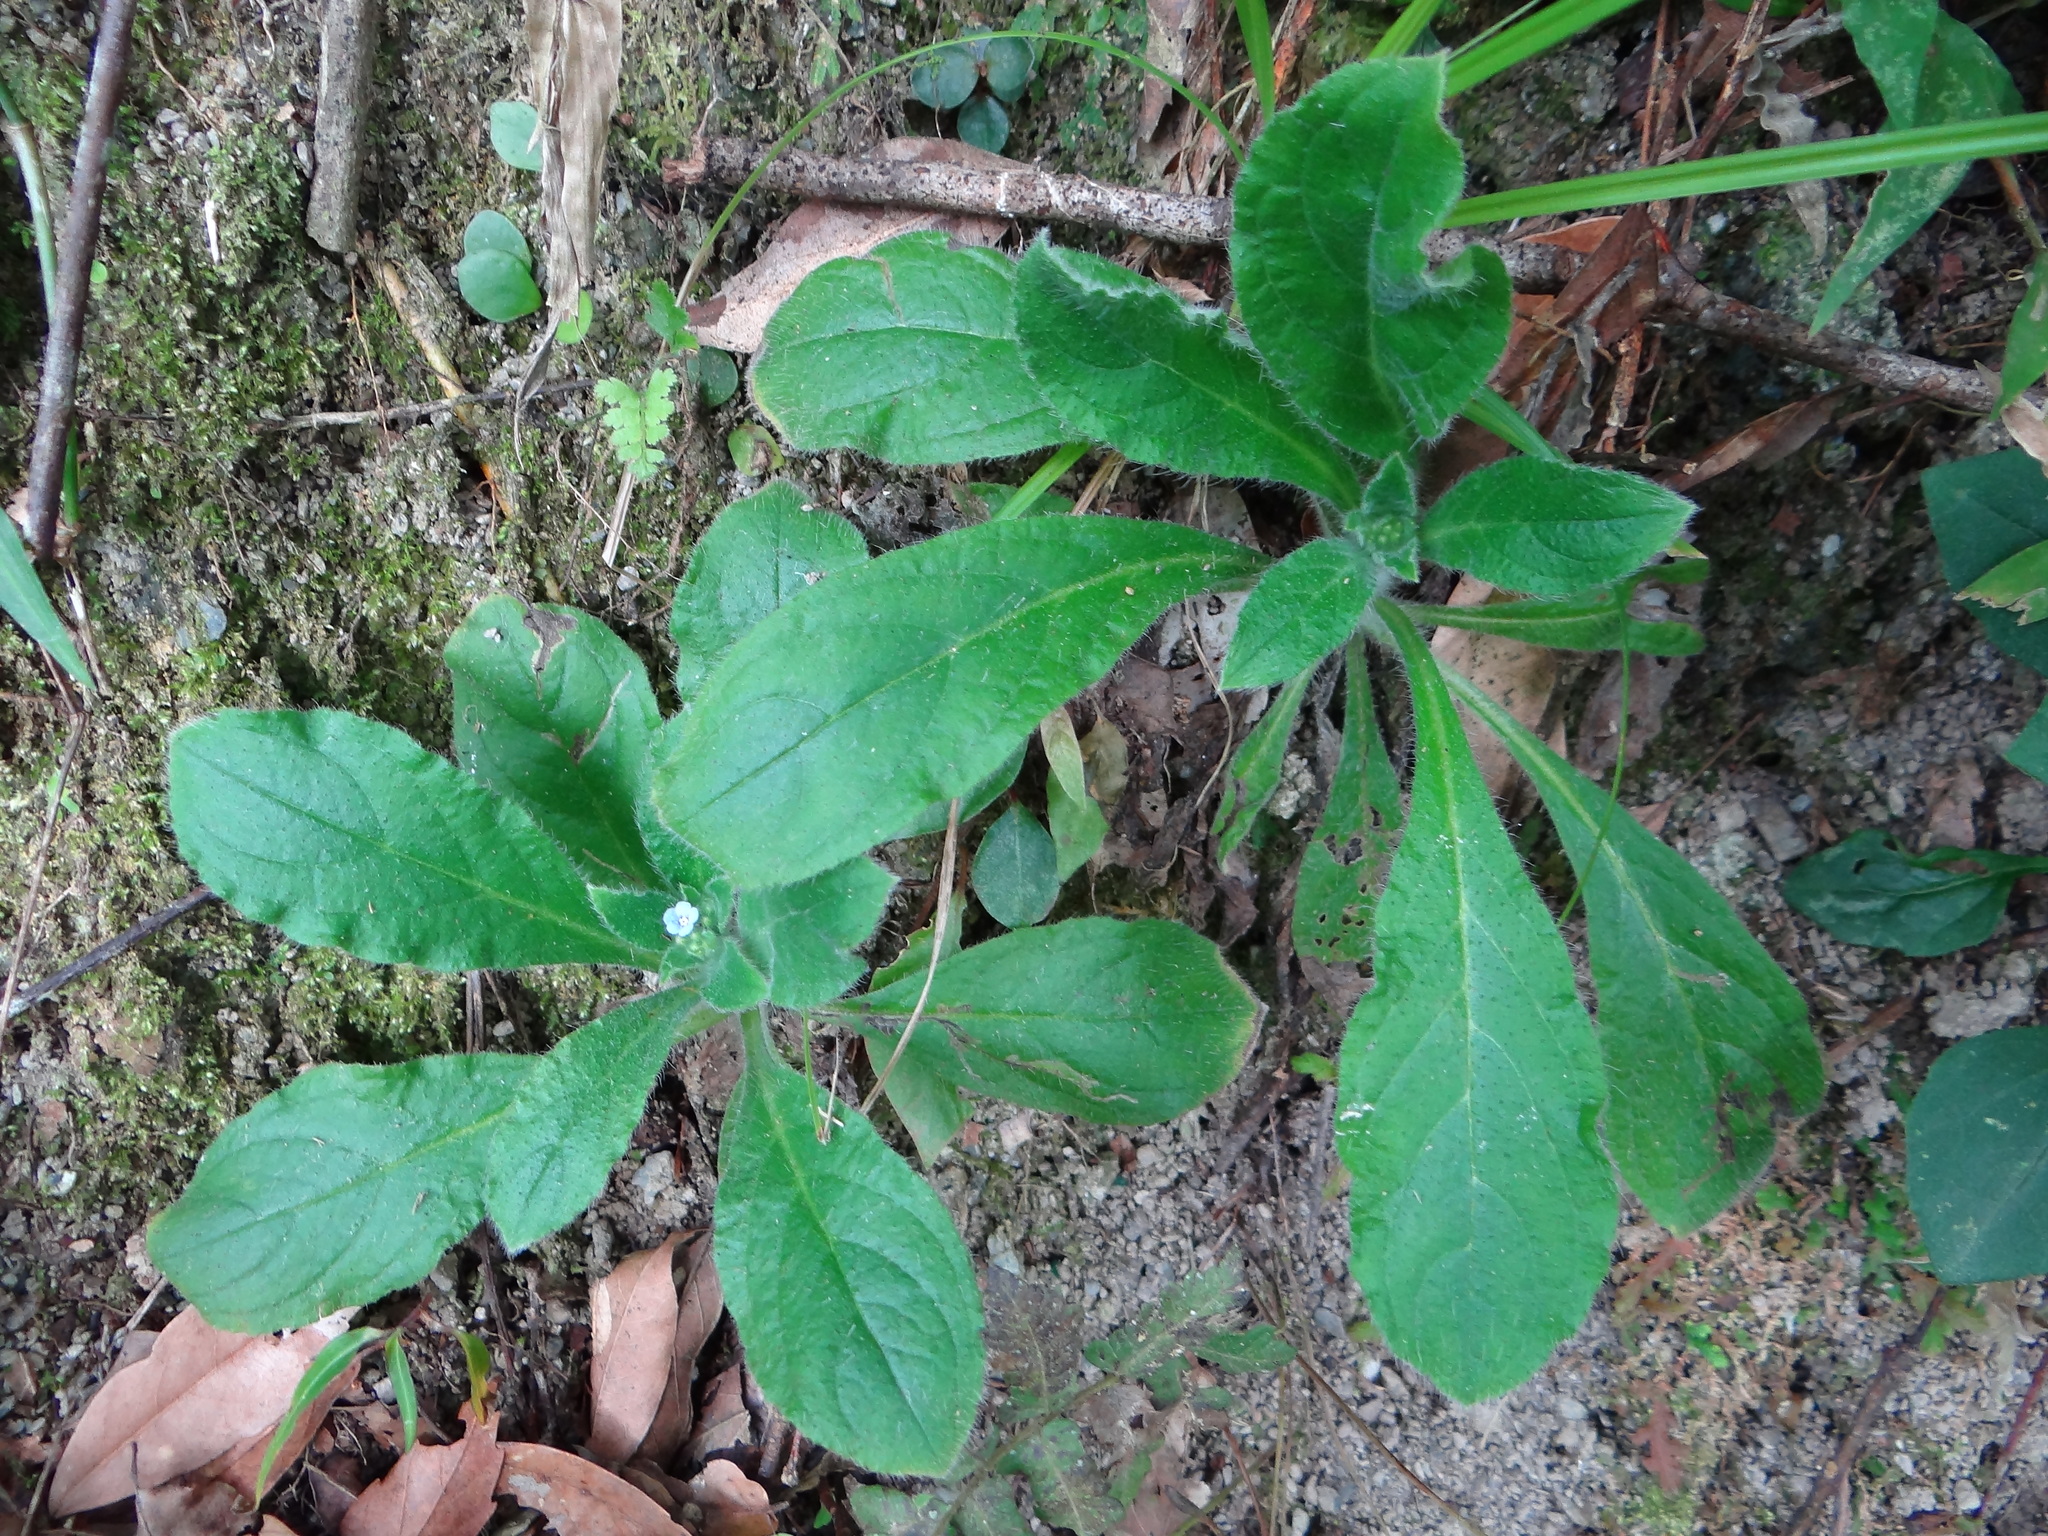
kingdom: Plantae
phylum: Tracheophyta
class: Magnoliopsida
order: Boraginales
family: Boraginaceae
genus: Thyrocarpus
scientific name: Thyrocarpus sampsonii
